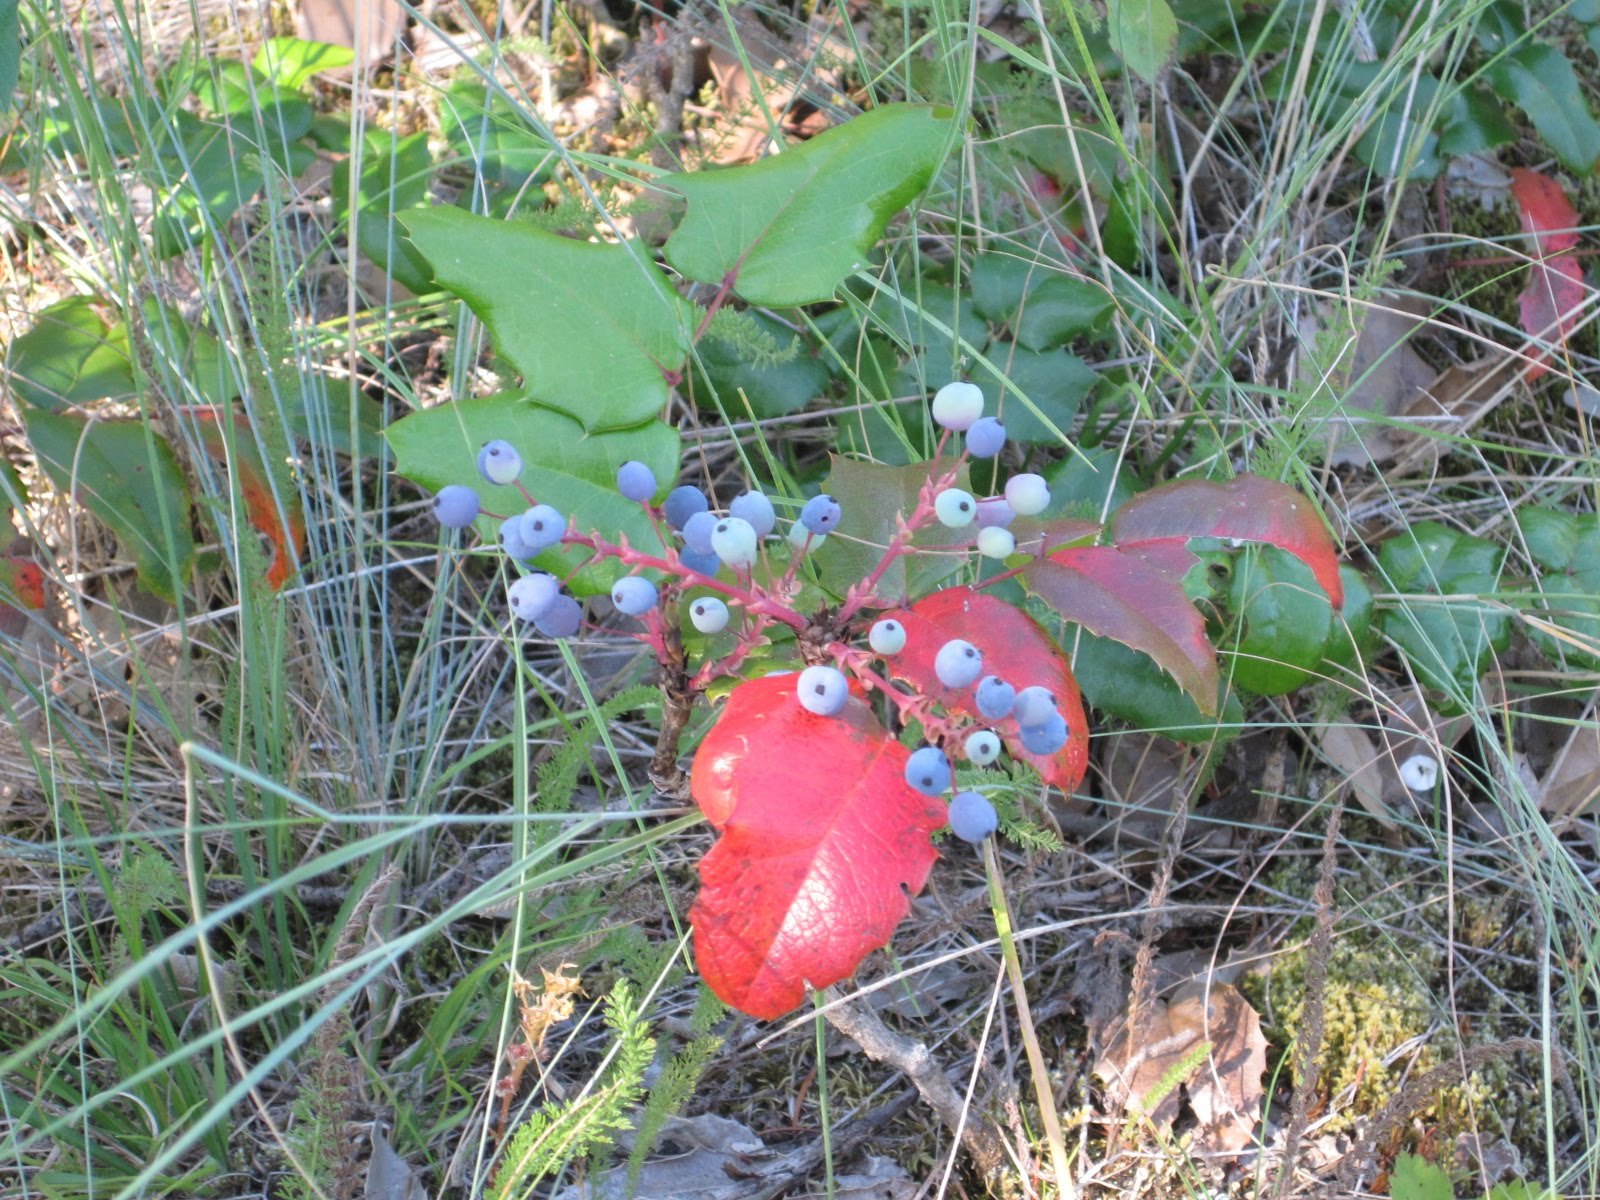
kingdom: Plantae
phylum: Tracheophyta
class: Magnoliopsida
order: Ranunculales
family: Berberidaceae
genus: Mahonia
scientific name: Mahonia aquifolium
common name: Oregon-grape
